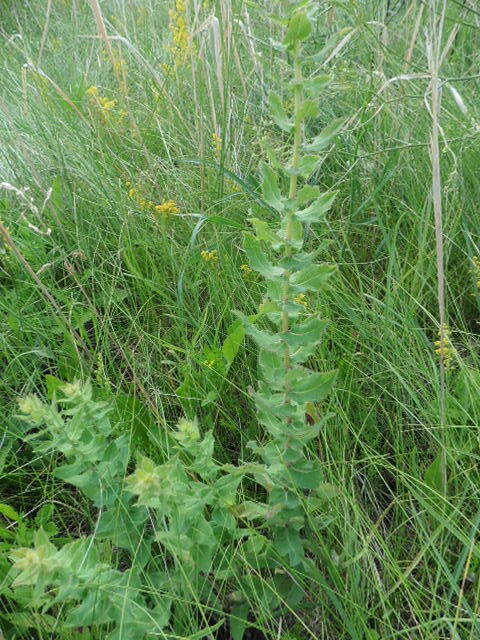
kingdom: Plantae
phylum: Tracheophyta
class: Magnoliopsida
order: Asterales
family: Asteraceae
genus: Hieracium
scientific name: Hieracium virosum
